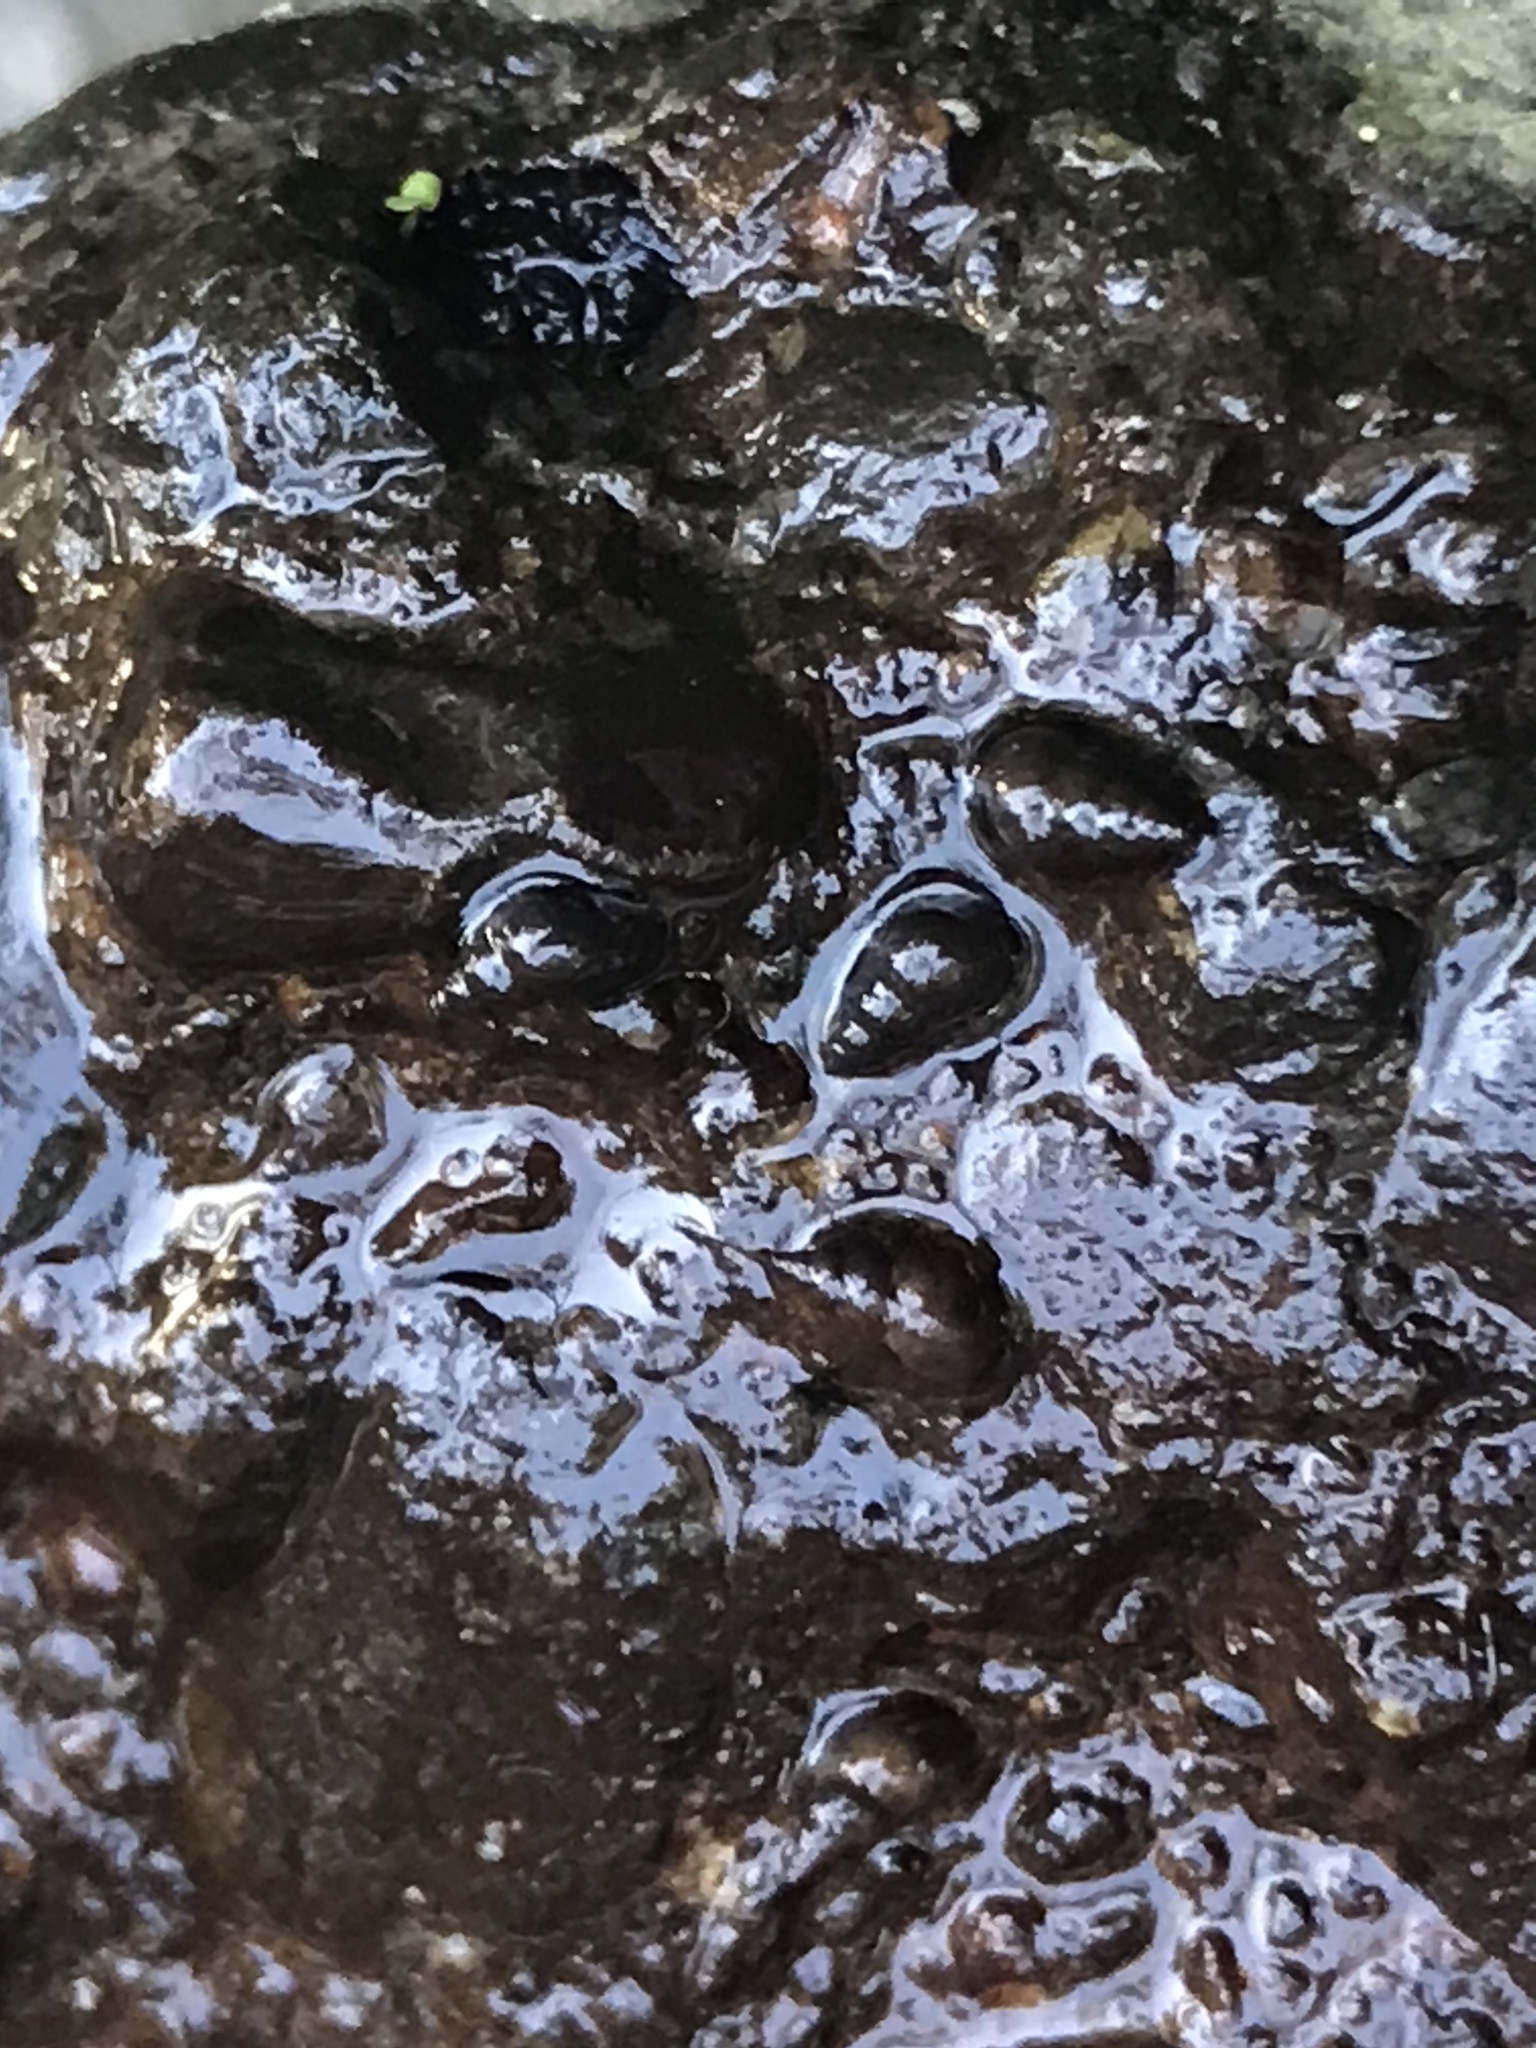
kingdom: Animalia
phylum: Mollusca
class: Gastropoda
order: Littorinimorpha
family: Tateidae
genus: Potamopyrgus
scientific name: Potamopyrgus antipodarum
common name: Jenkins' spire snail
